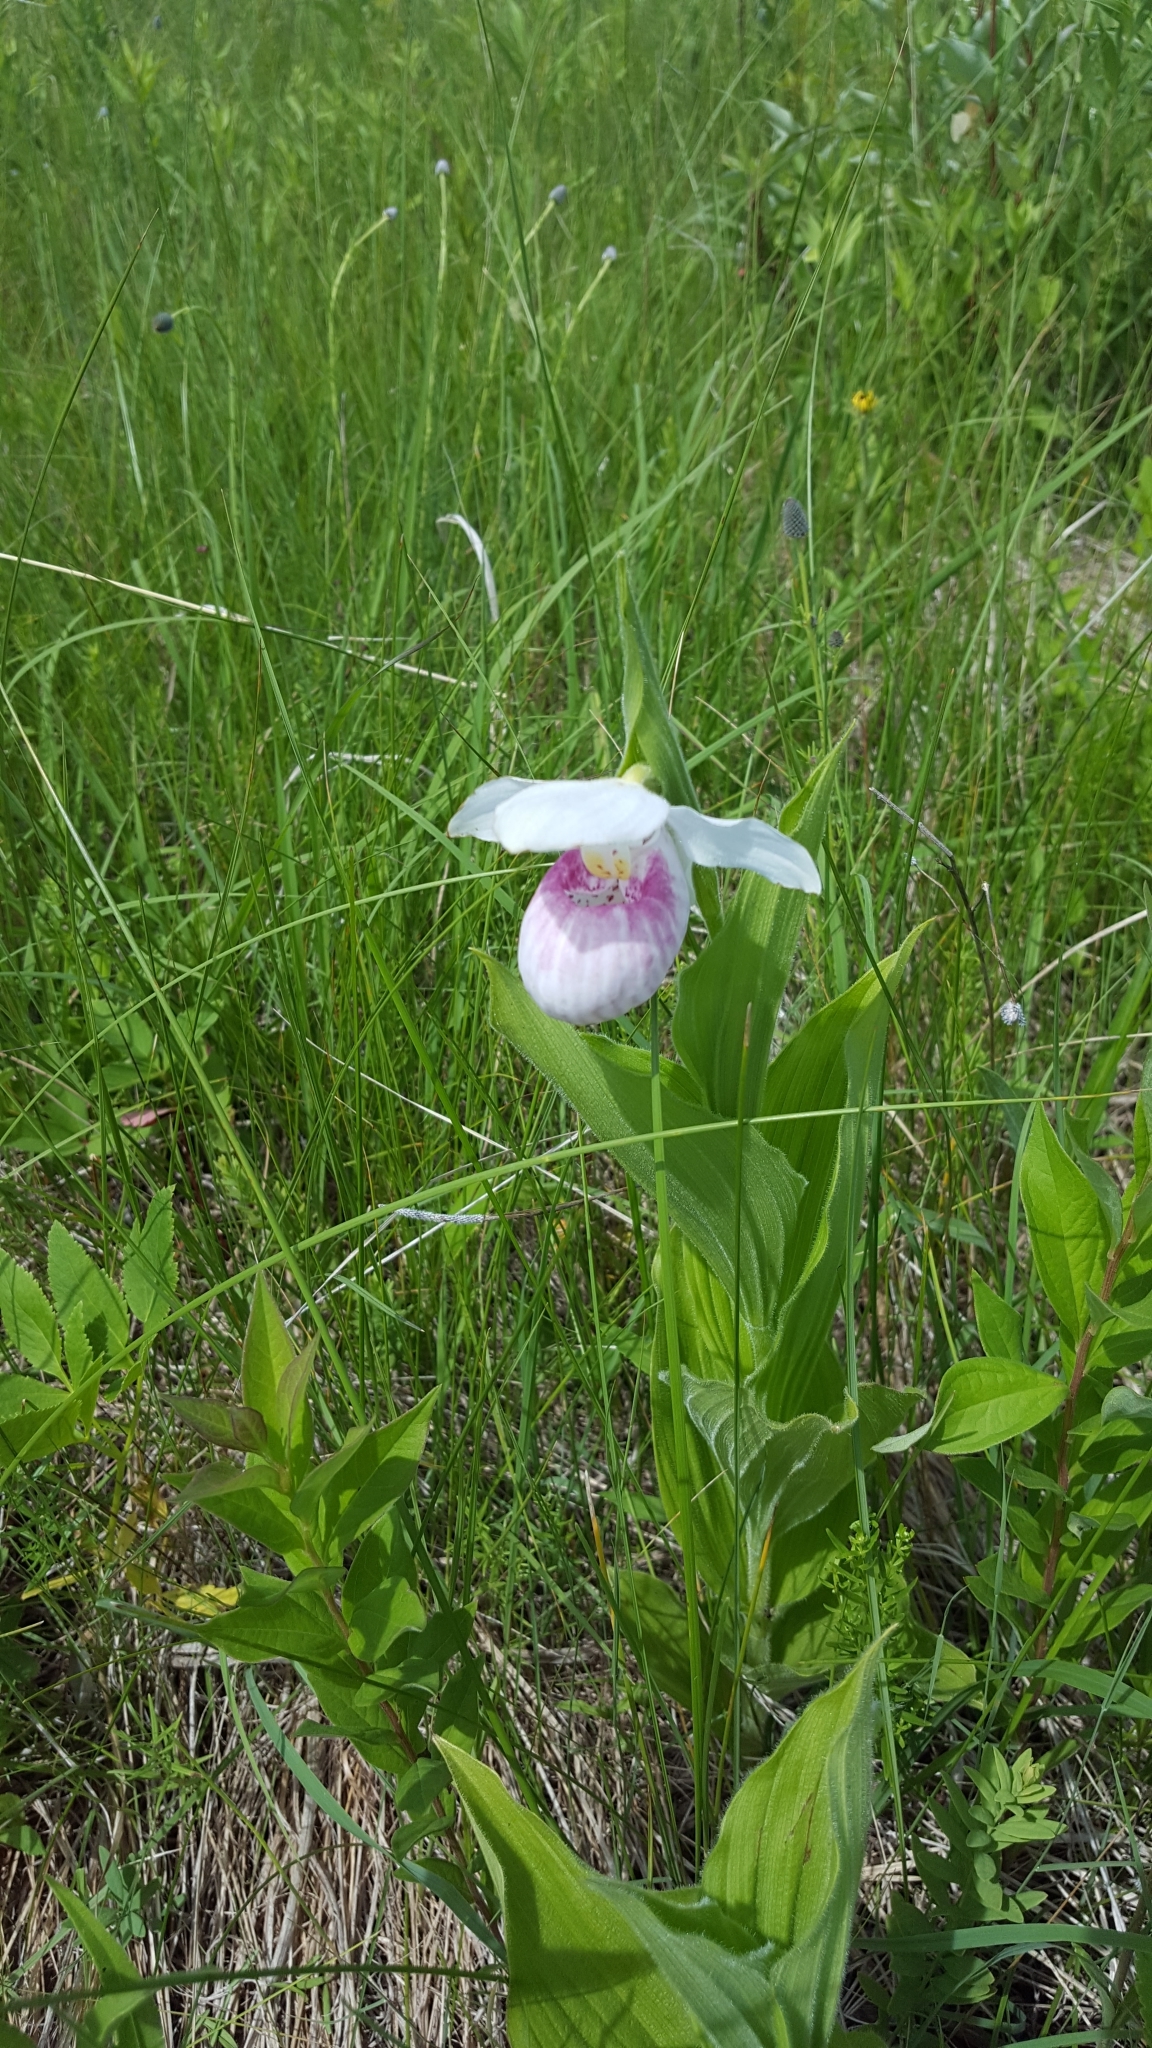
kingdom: Plantae
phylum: Tracheophyta
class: Liliopsida
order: Asparagales
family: Orchidaceae
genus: Cypripedium
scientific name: Cypripedium reginae
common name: Queen lady's-slipper
